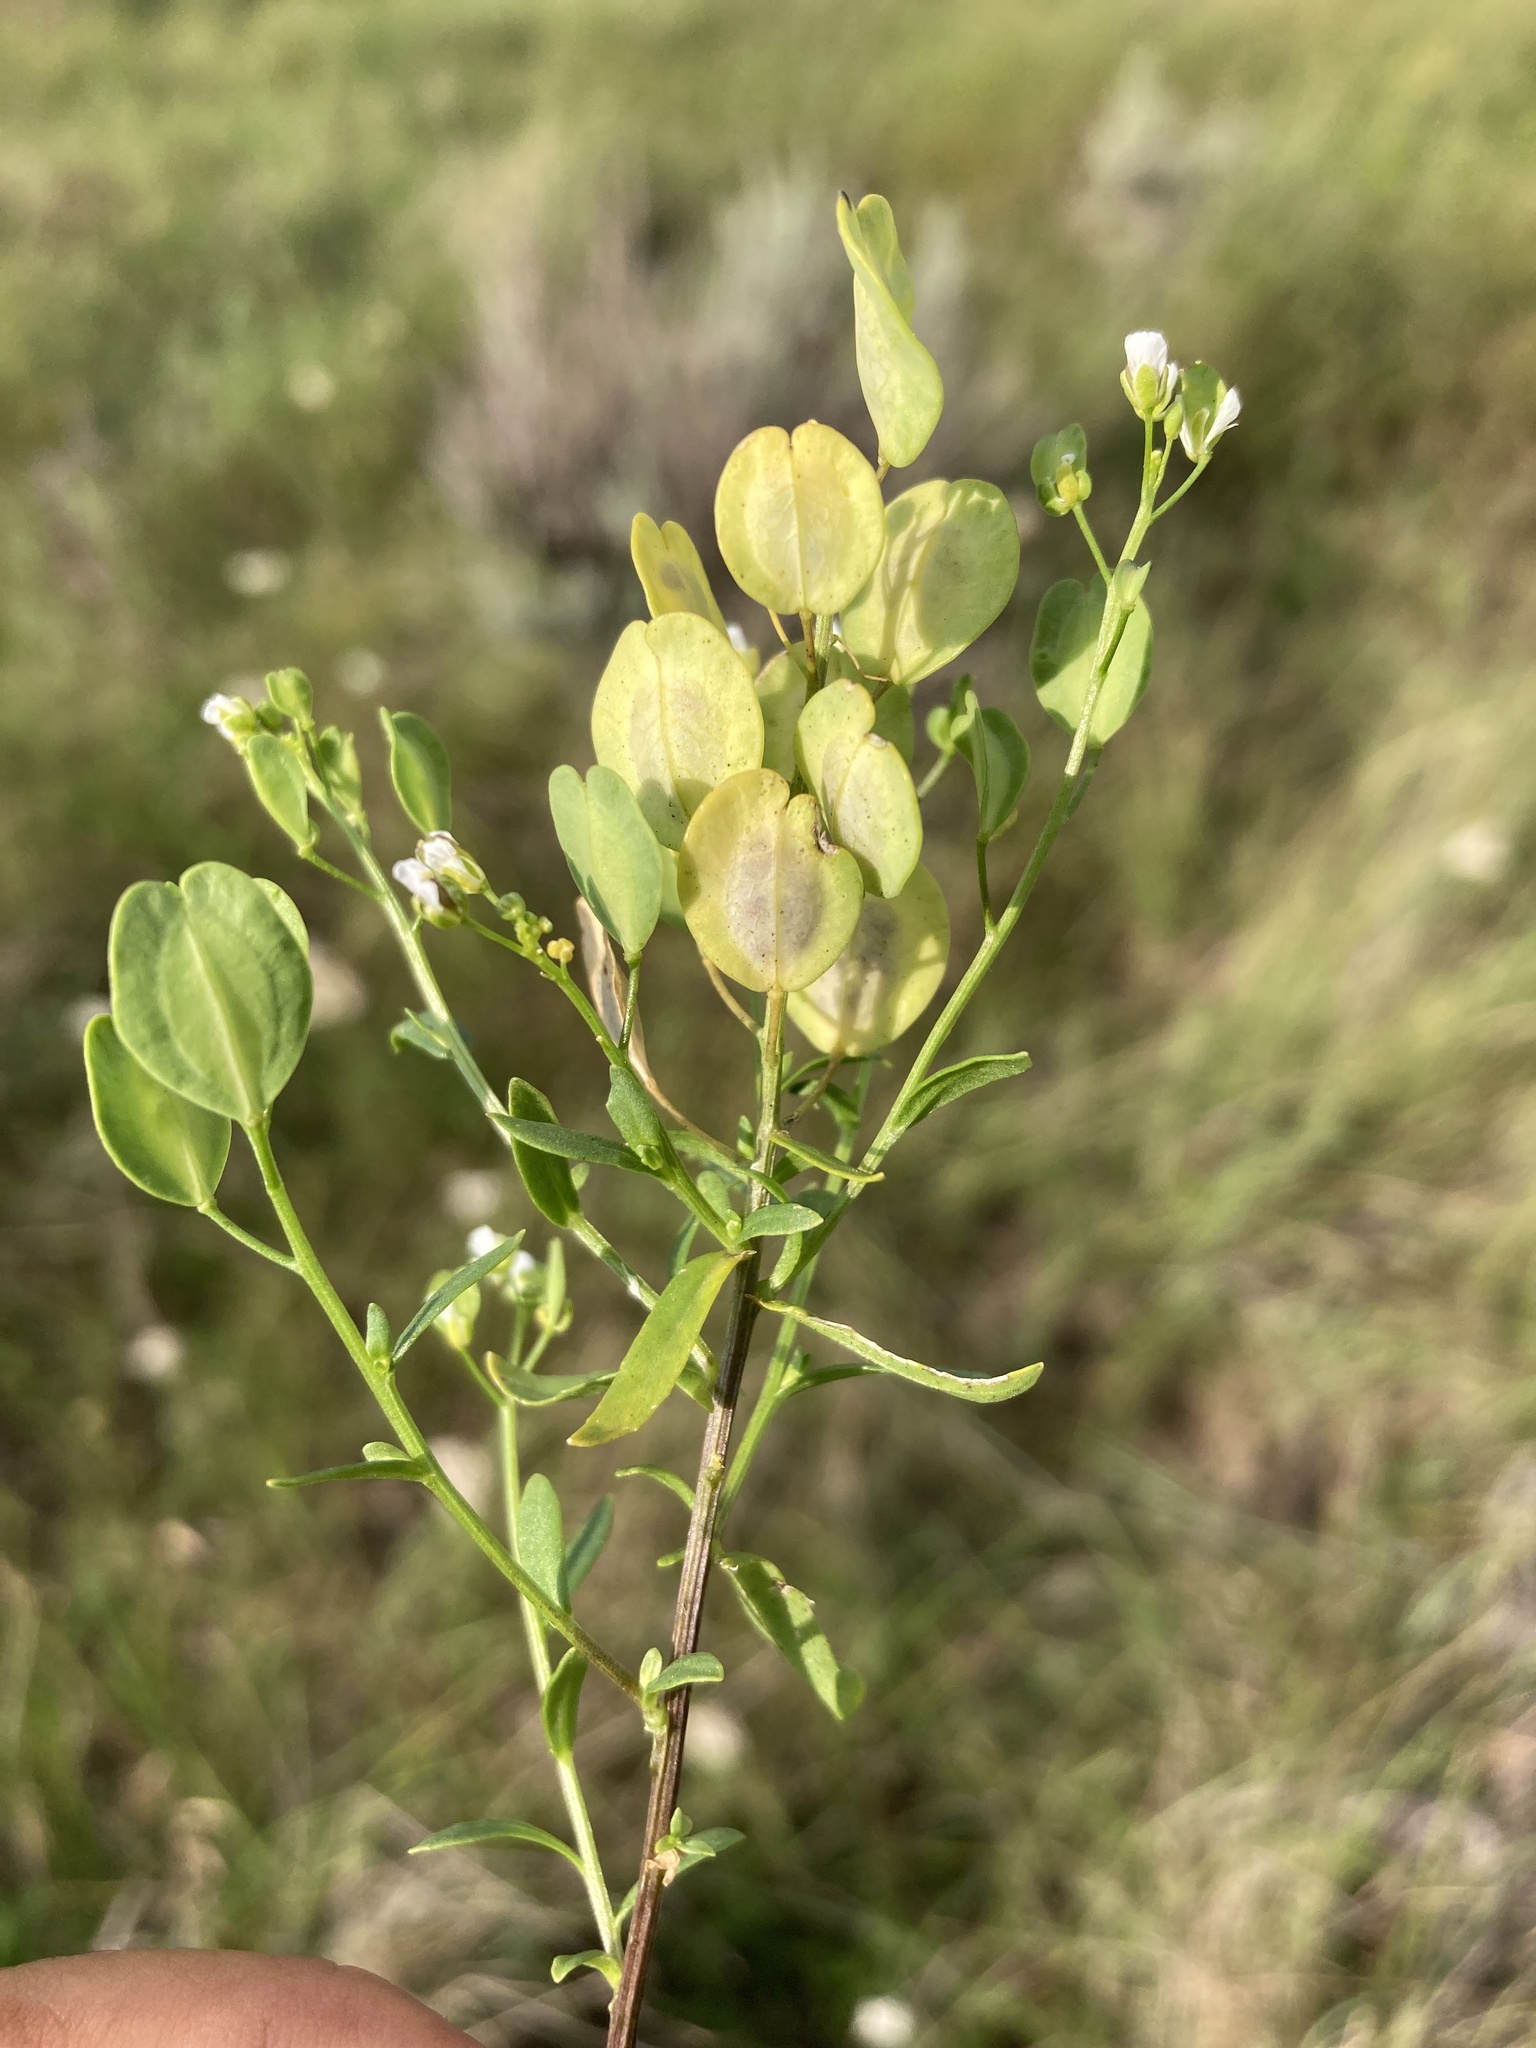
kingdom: Plantae
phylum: Tracheophyta
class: Magnoliopsida
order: Brassicales
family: Brassicaceae
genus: Thlaspi
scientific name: Thlaspi arvense
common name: Field pennycress
